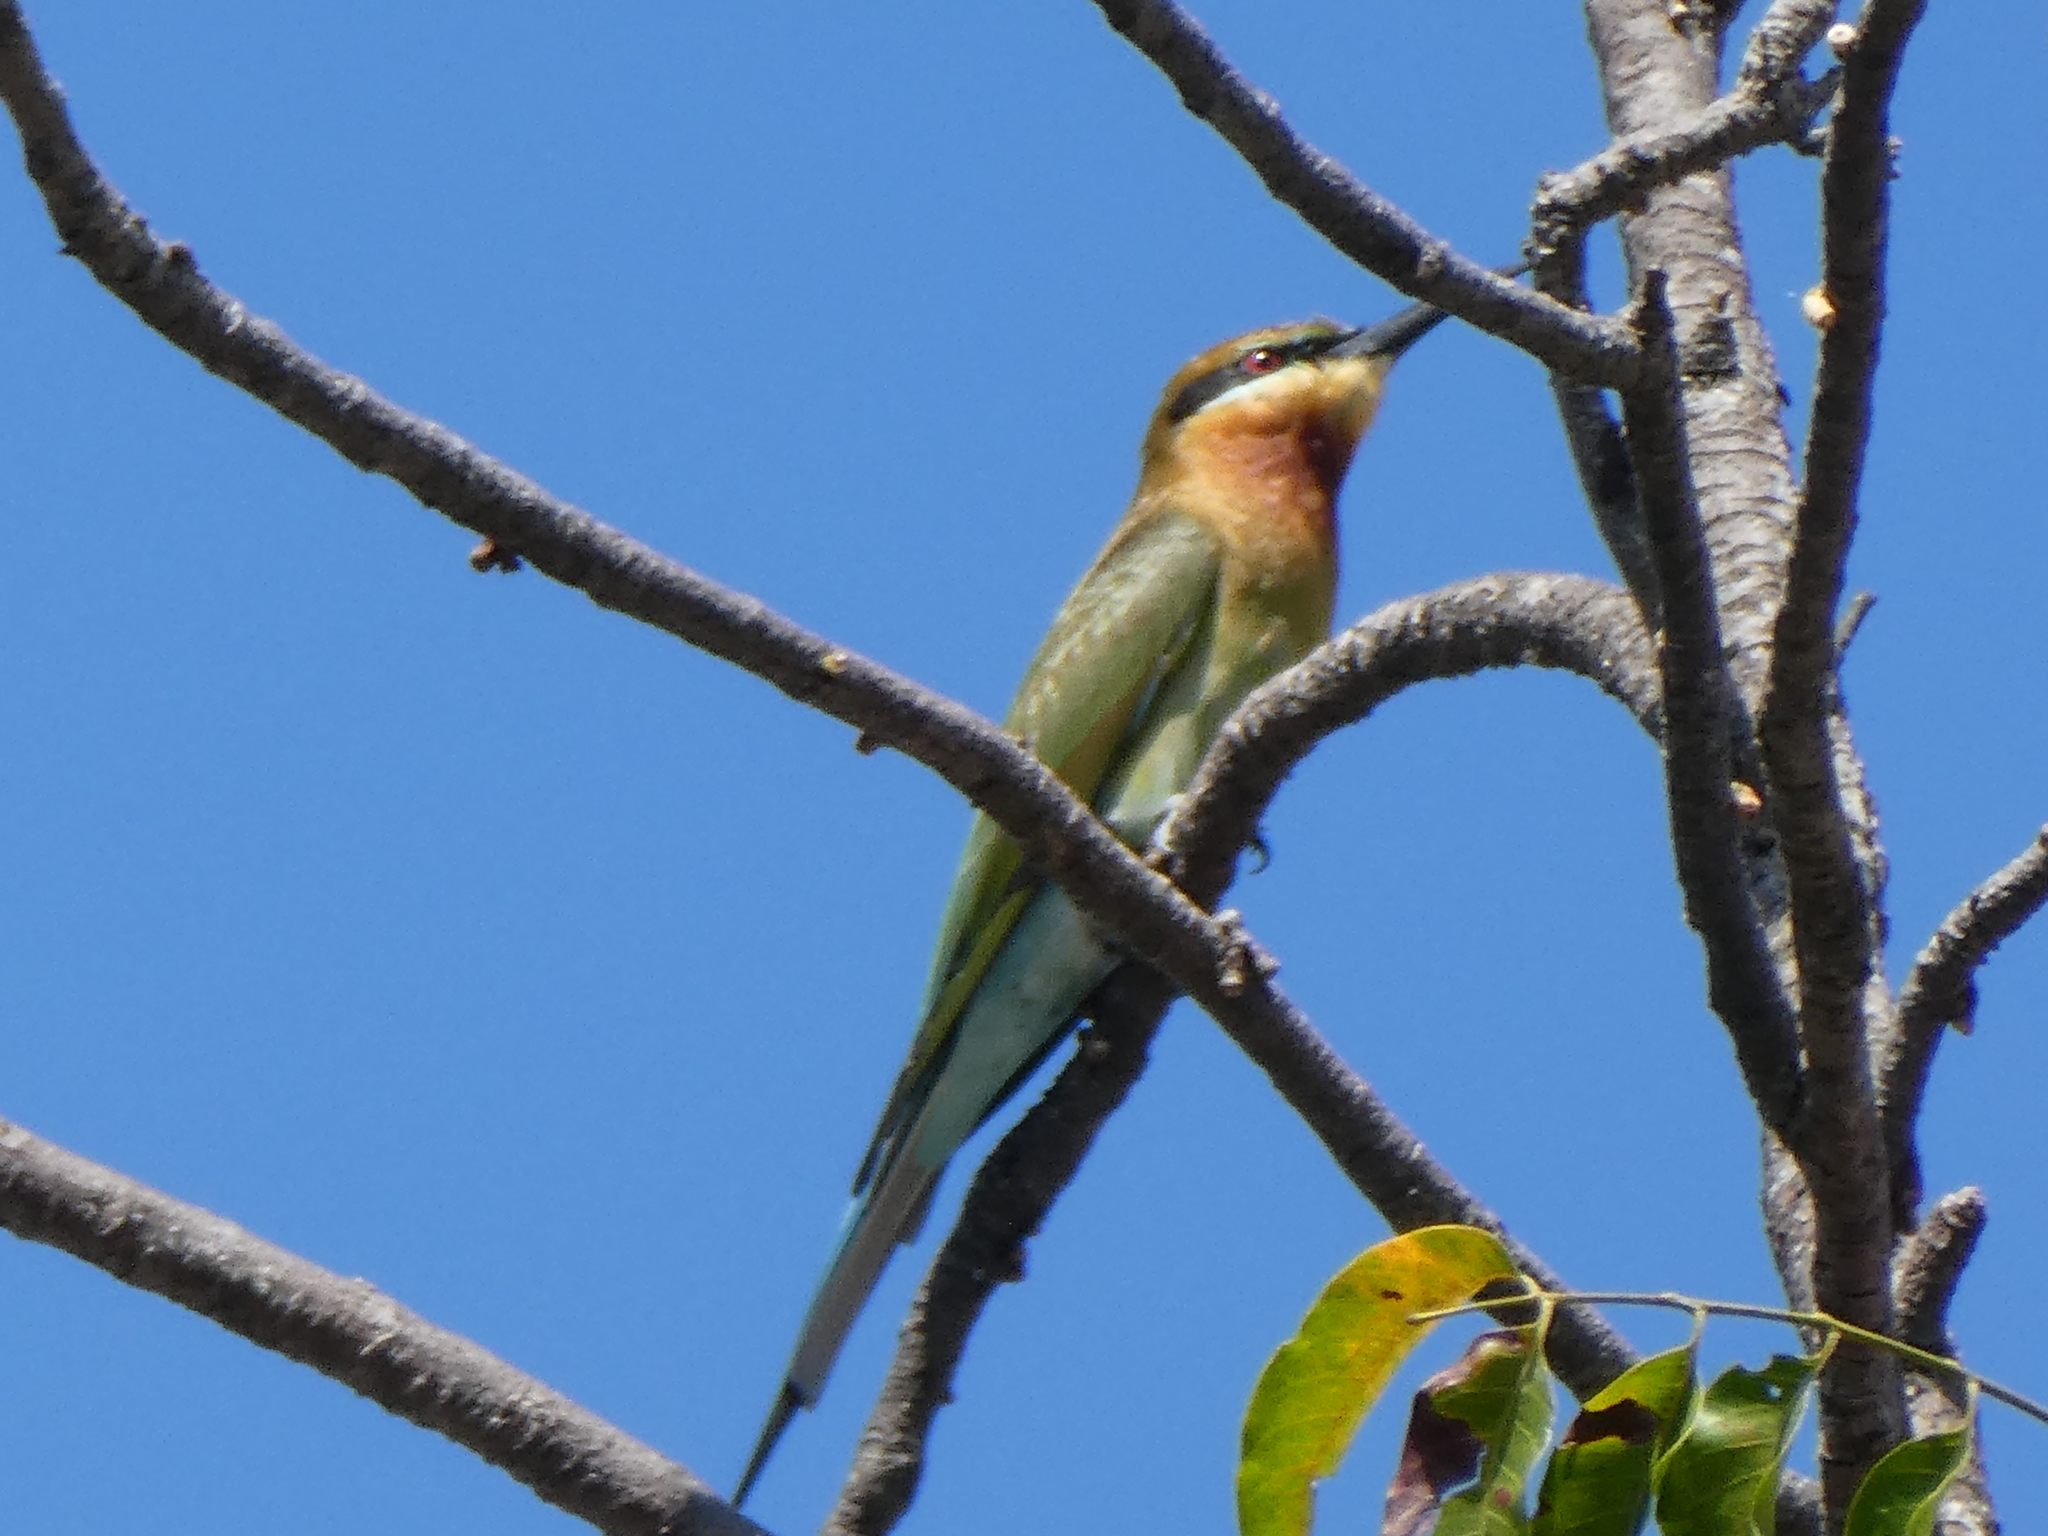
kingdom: Animalia
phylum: Chordata
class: Aves
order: Coraciiformes
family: Meropidae
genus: Merops
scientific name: Merops philippinus
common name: Blue-tailed bee-eater
